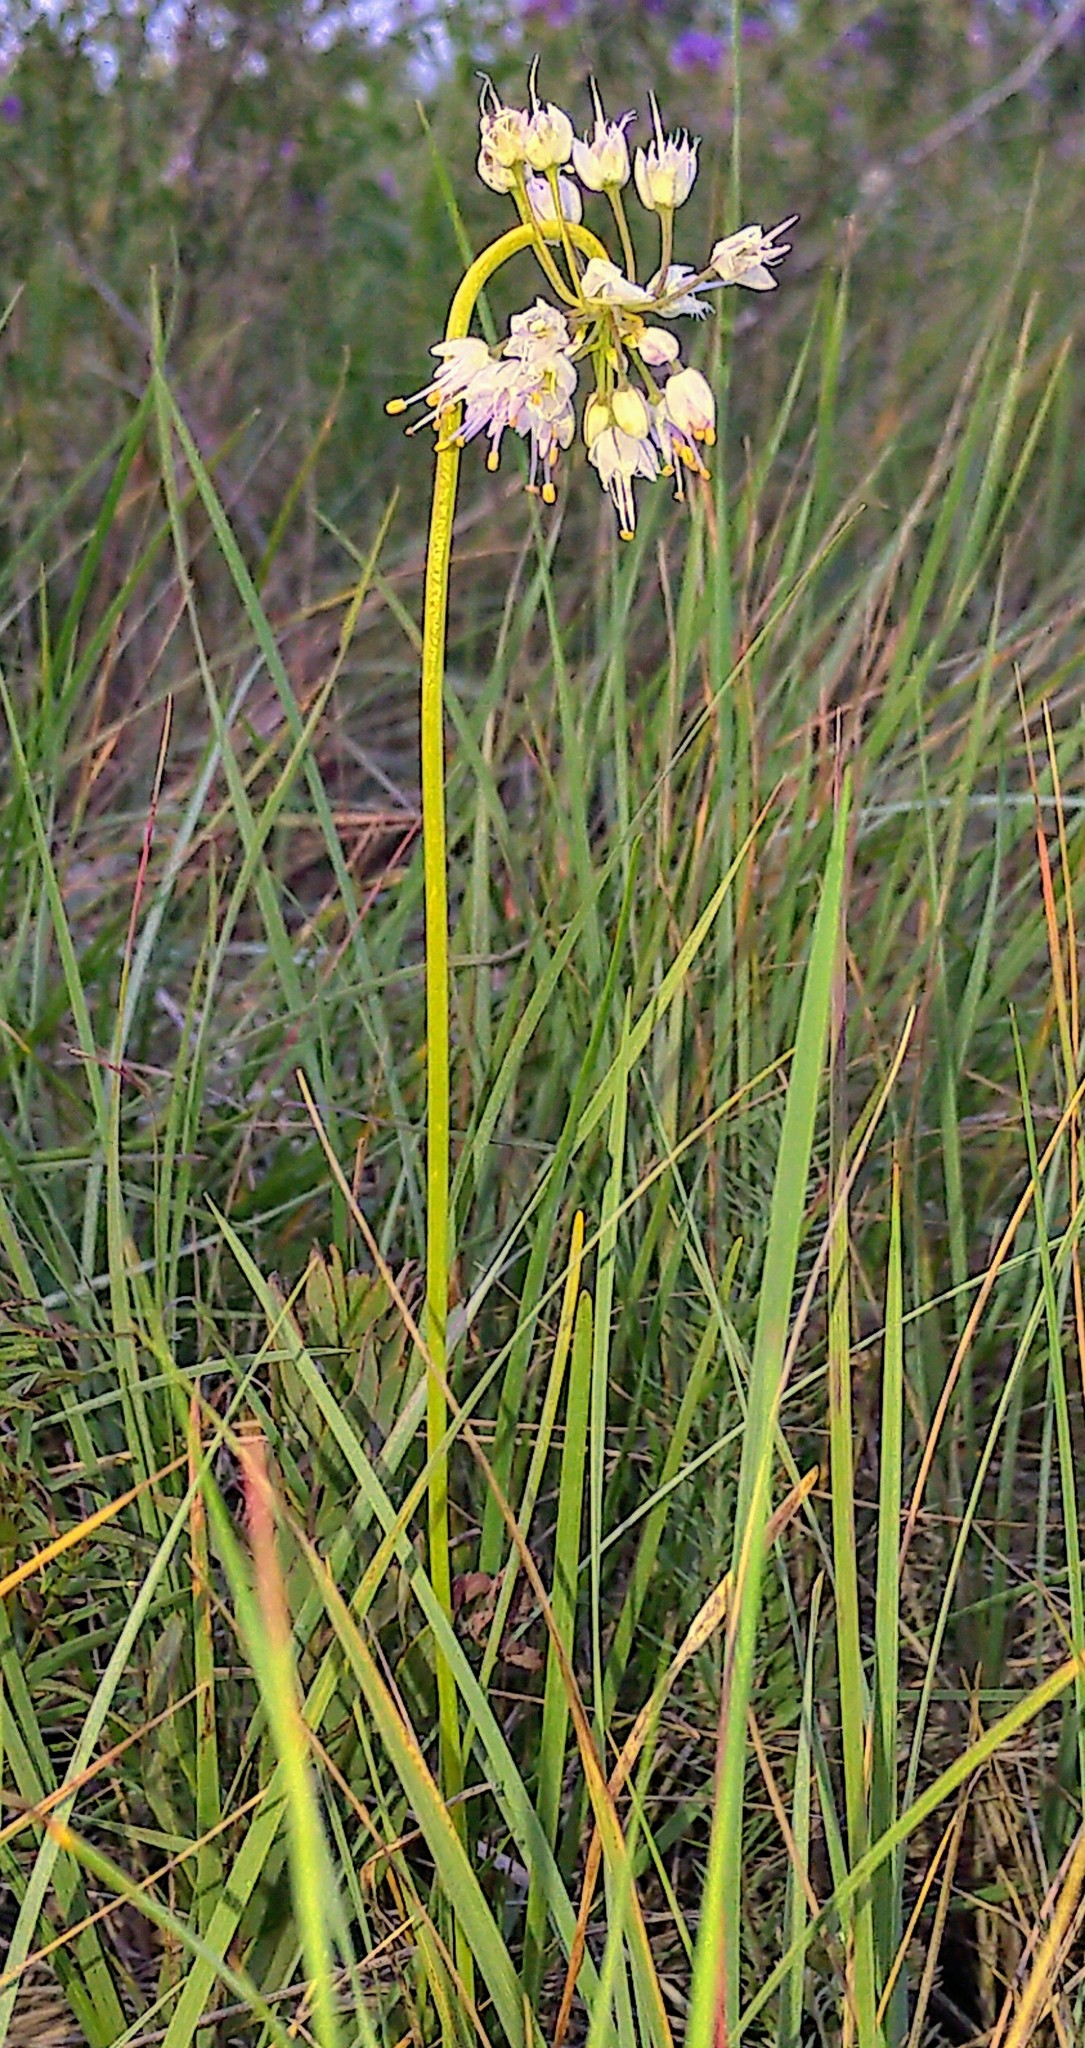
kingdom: Plantae
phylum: Tracheophyta
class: Liliopsida
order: Asparagales
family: Amaryllidaceae
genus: Allium
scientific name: Allium cernuum
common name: Nodding onion
